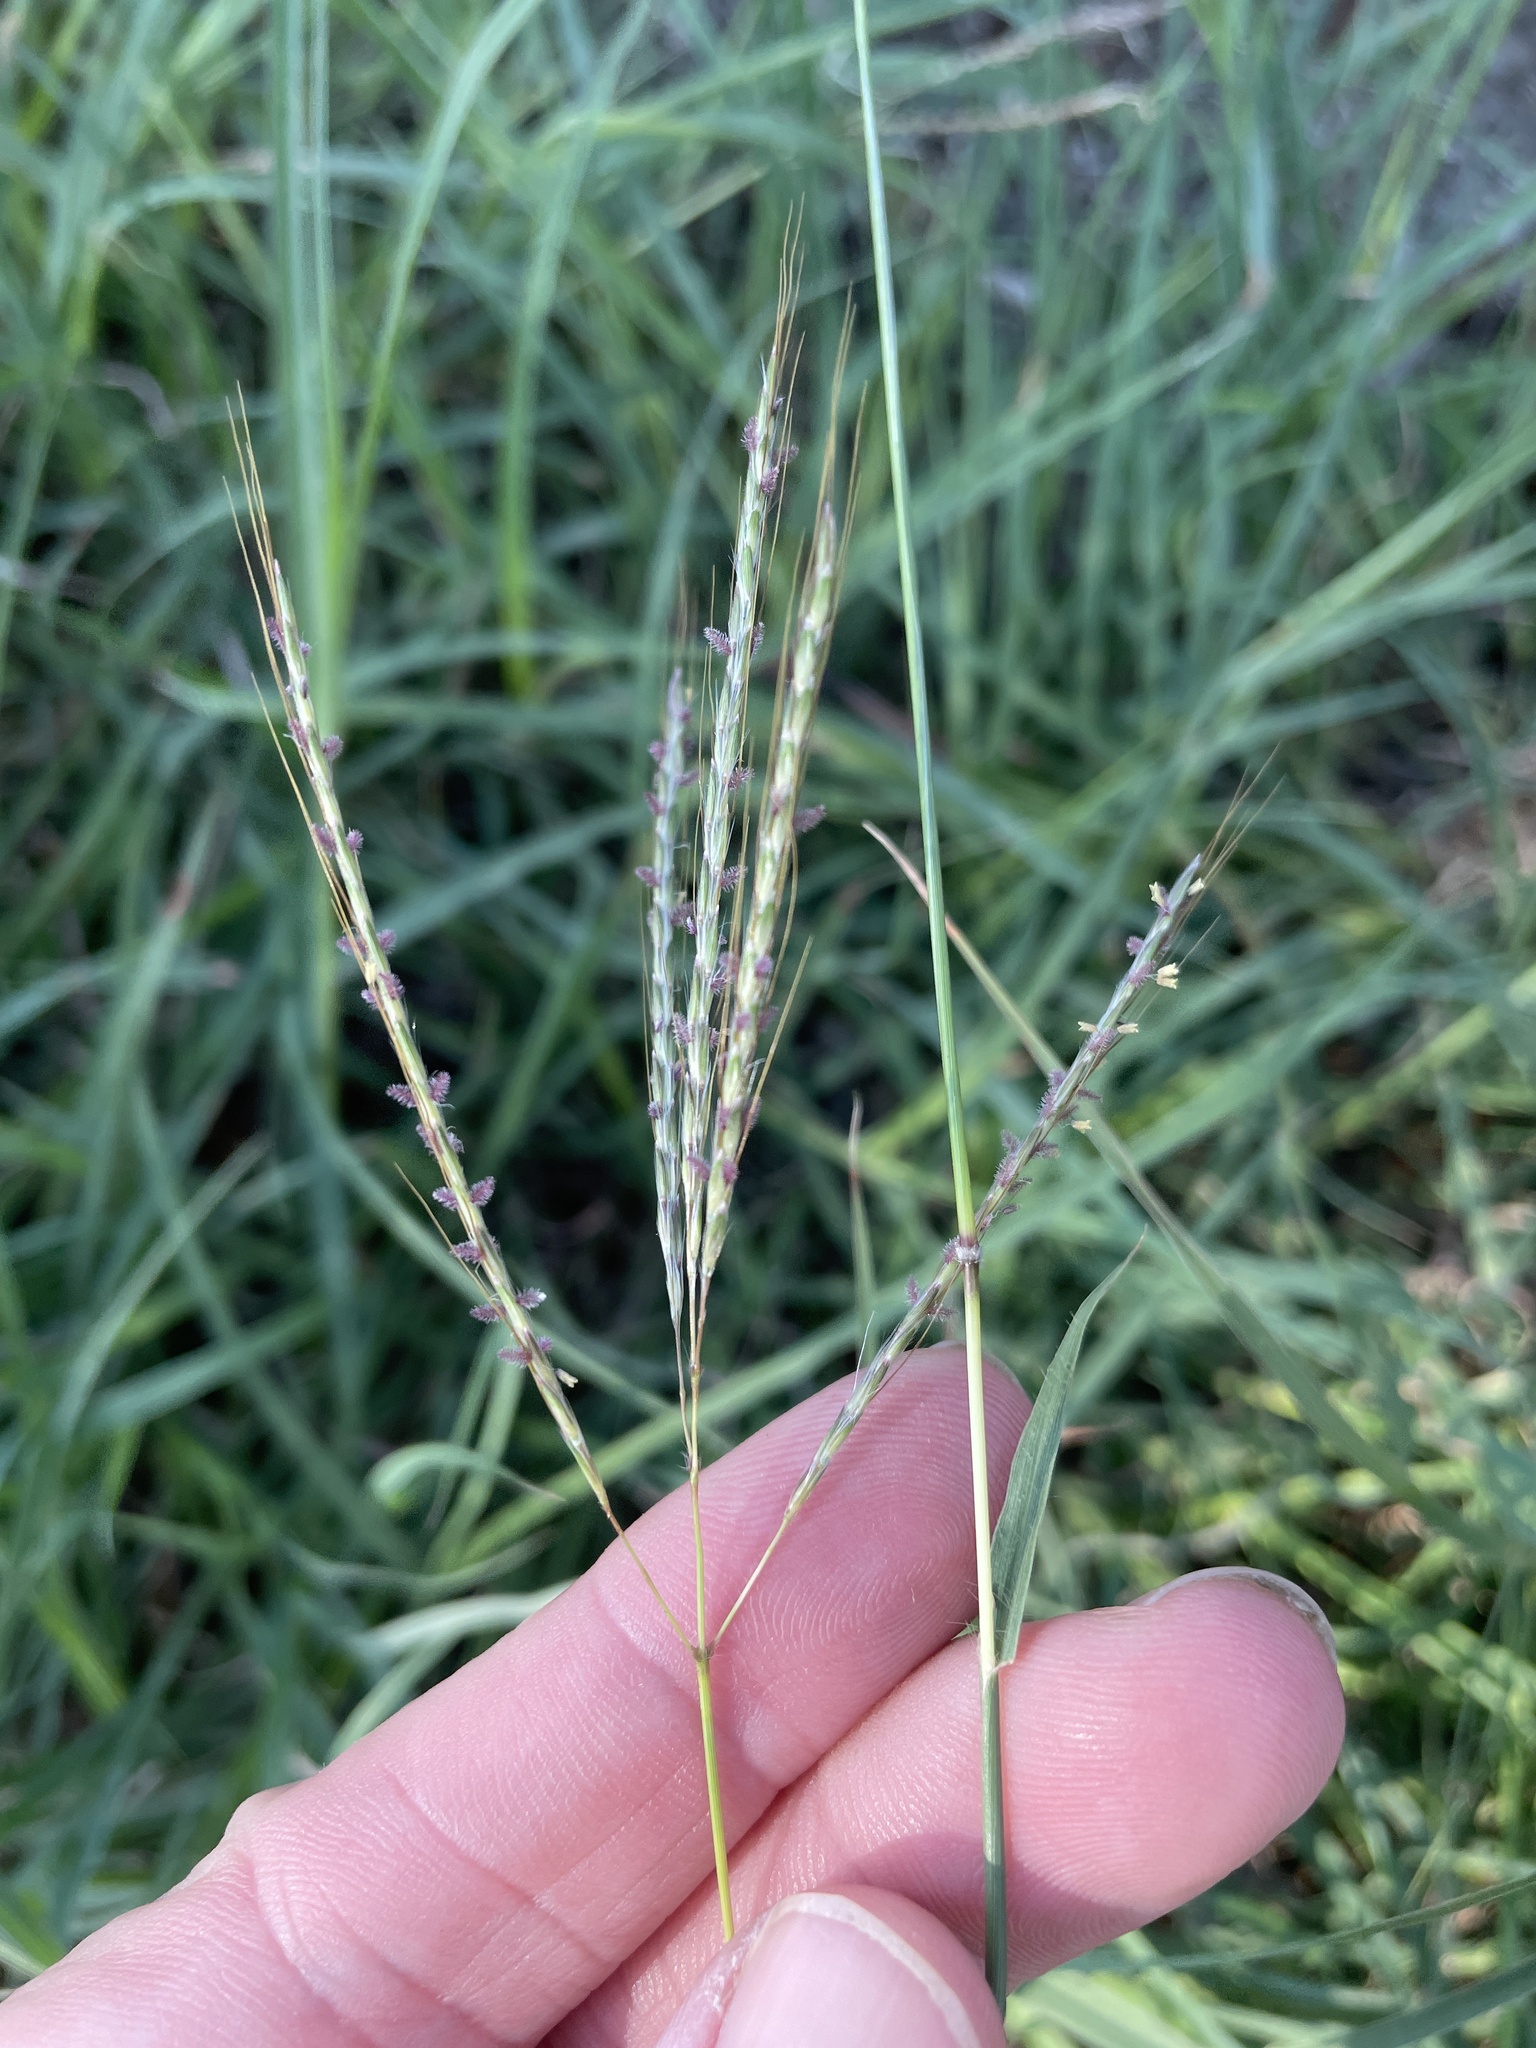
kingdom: Plantae
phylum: Tracheophyta
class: Liliopsida
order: Poales
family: Poaceae
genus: Bothriochloa
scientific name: Bothriochloa ischaemum
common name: Yellow bluestem
